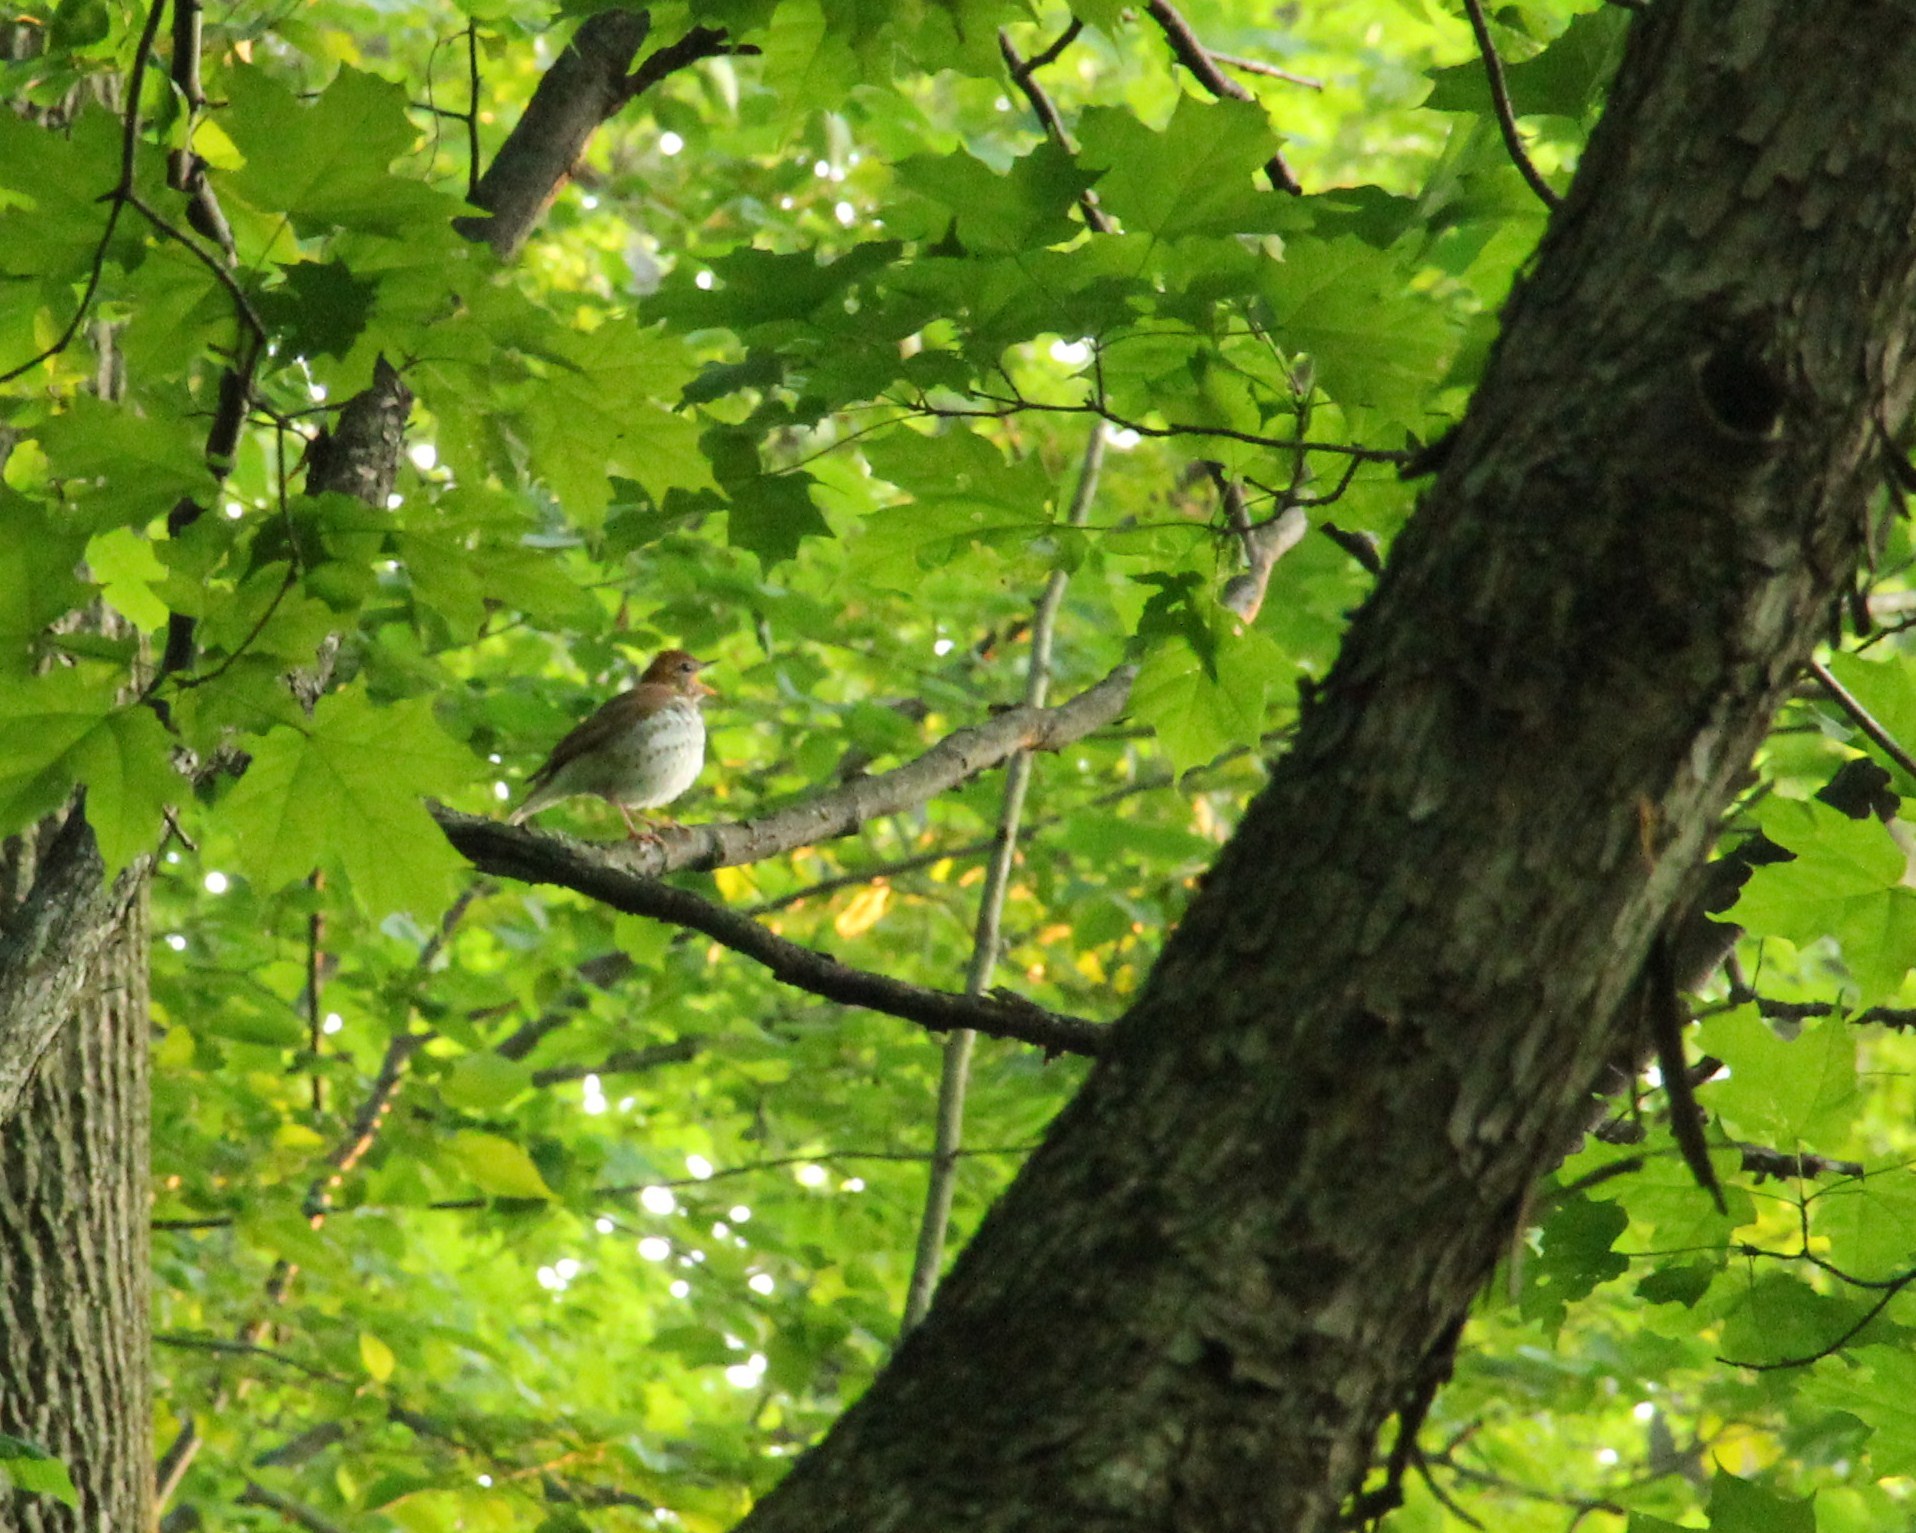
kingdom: Animalia
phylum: Chordata
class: Aves
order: Passeriformes
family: Turdidae
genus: Hylocichla
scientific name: Hylocichla mustelina
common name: Wood thrush
